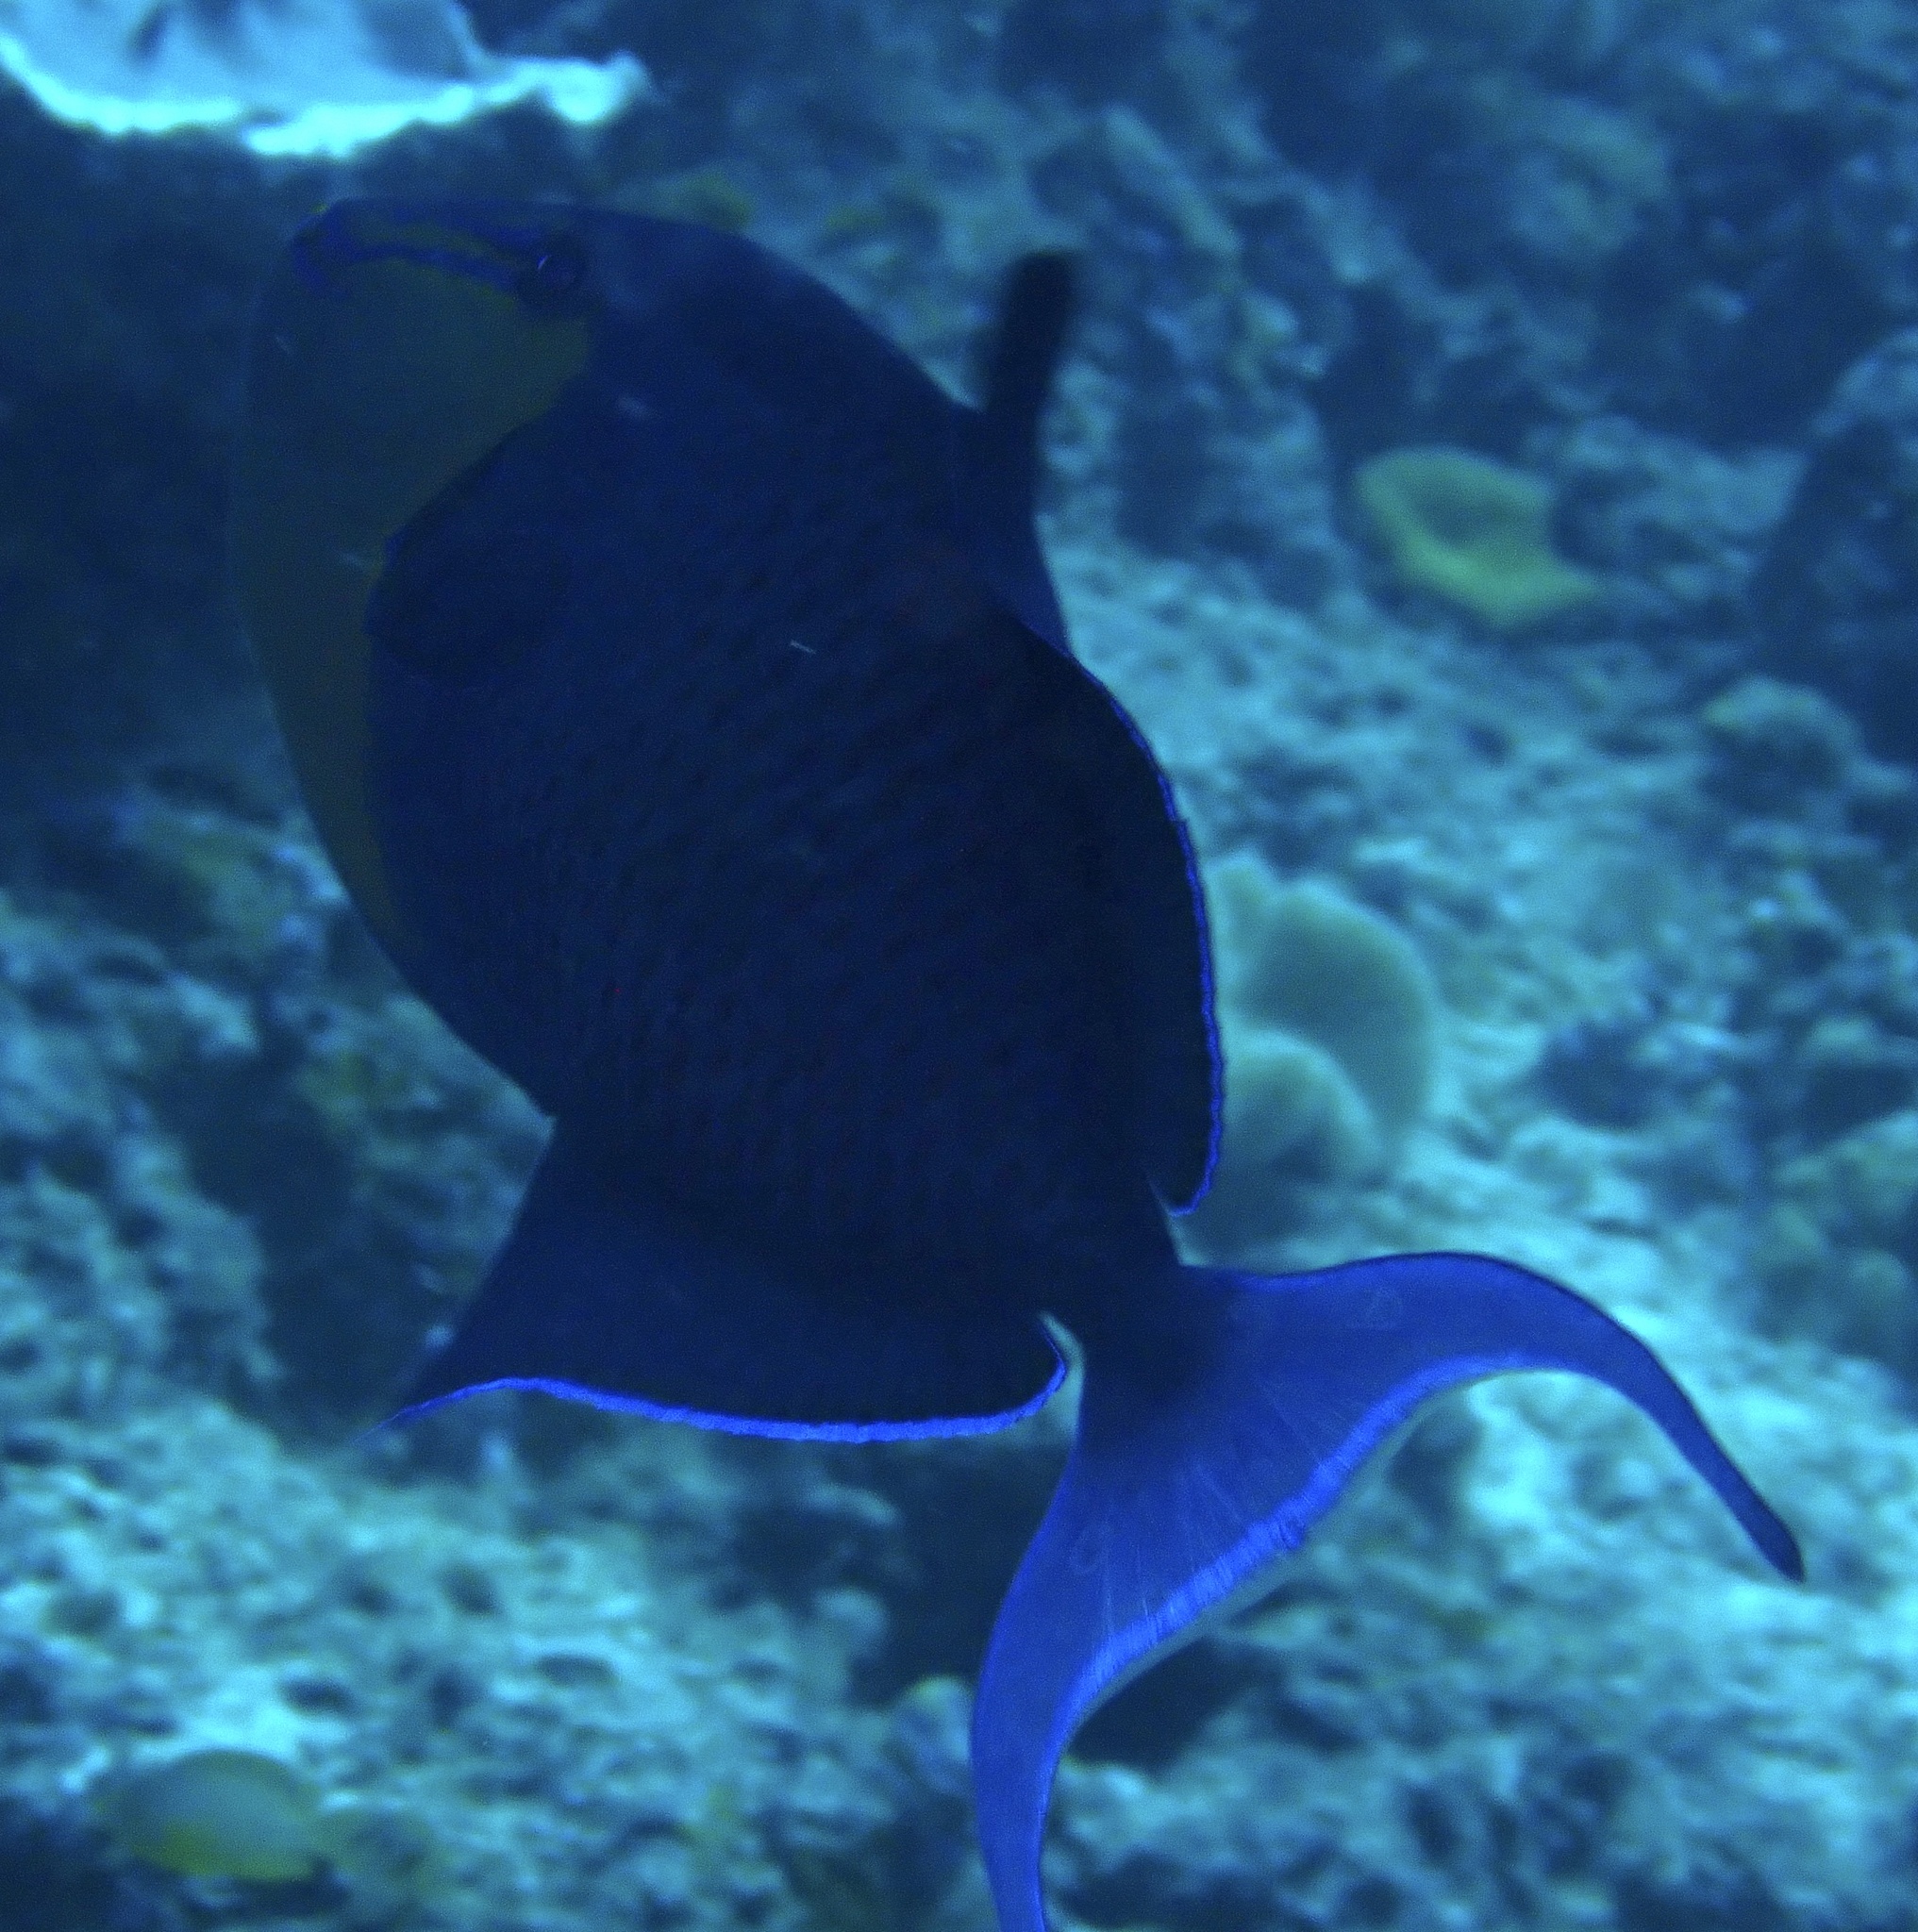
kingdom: Animalia
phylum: Chordata
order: Tetraodontiformes
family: Balistidae
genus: Odonus
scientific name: Odonus niger
